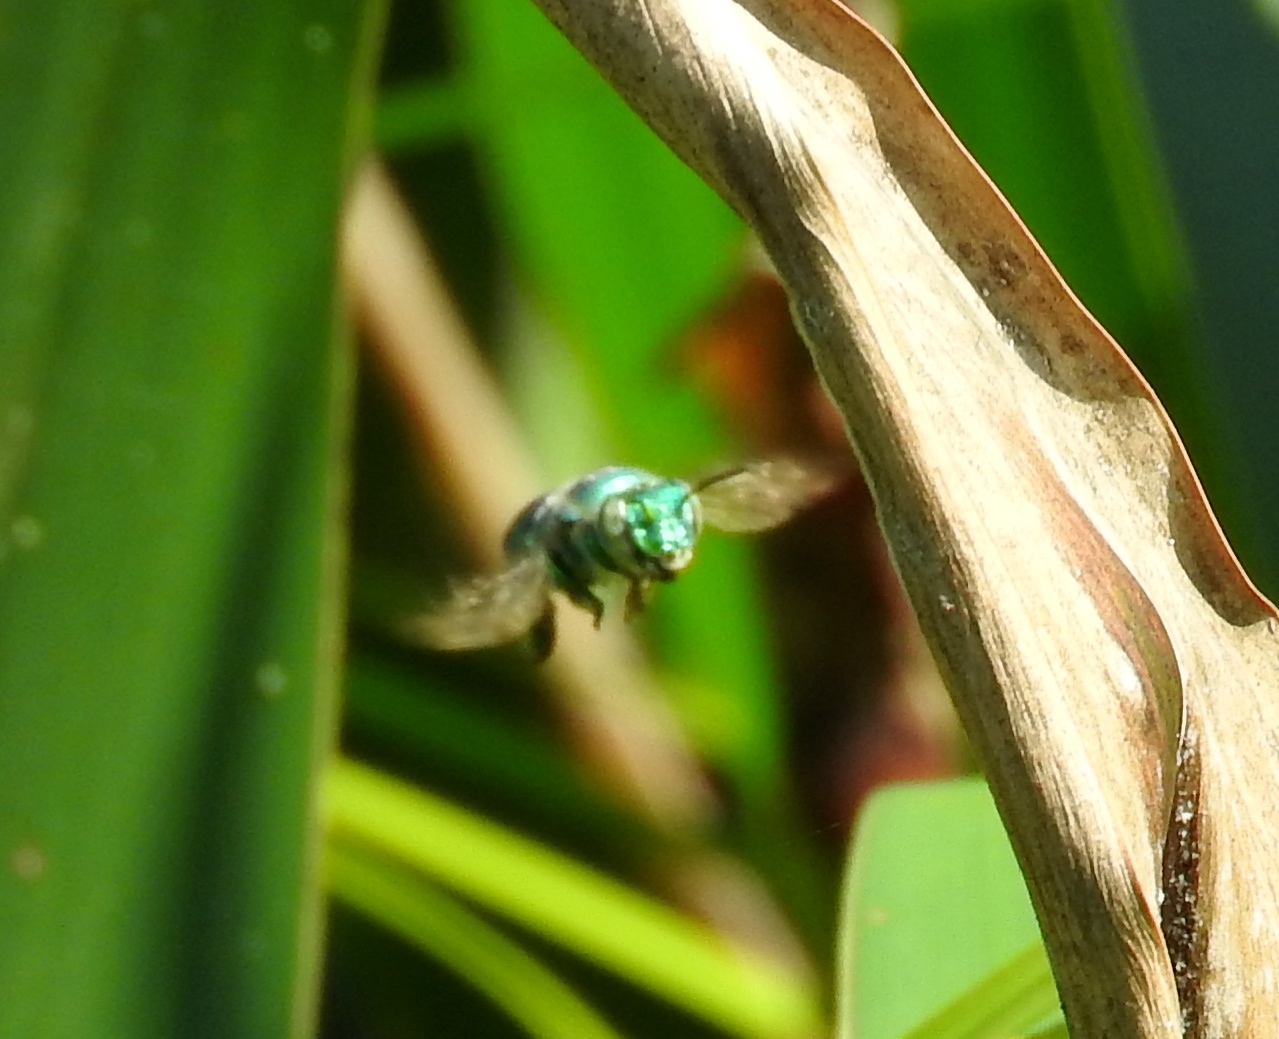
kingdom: Animalia
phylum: Arthropoda
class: Insecta
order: Hymenoptera
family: Apidae
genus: Euglossa
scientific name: Euglossa
